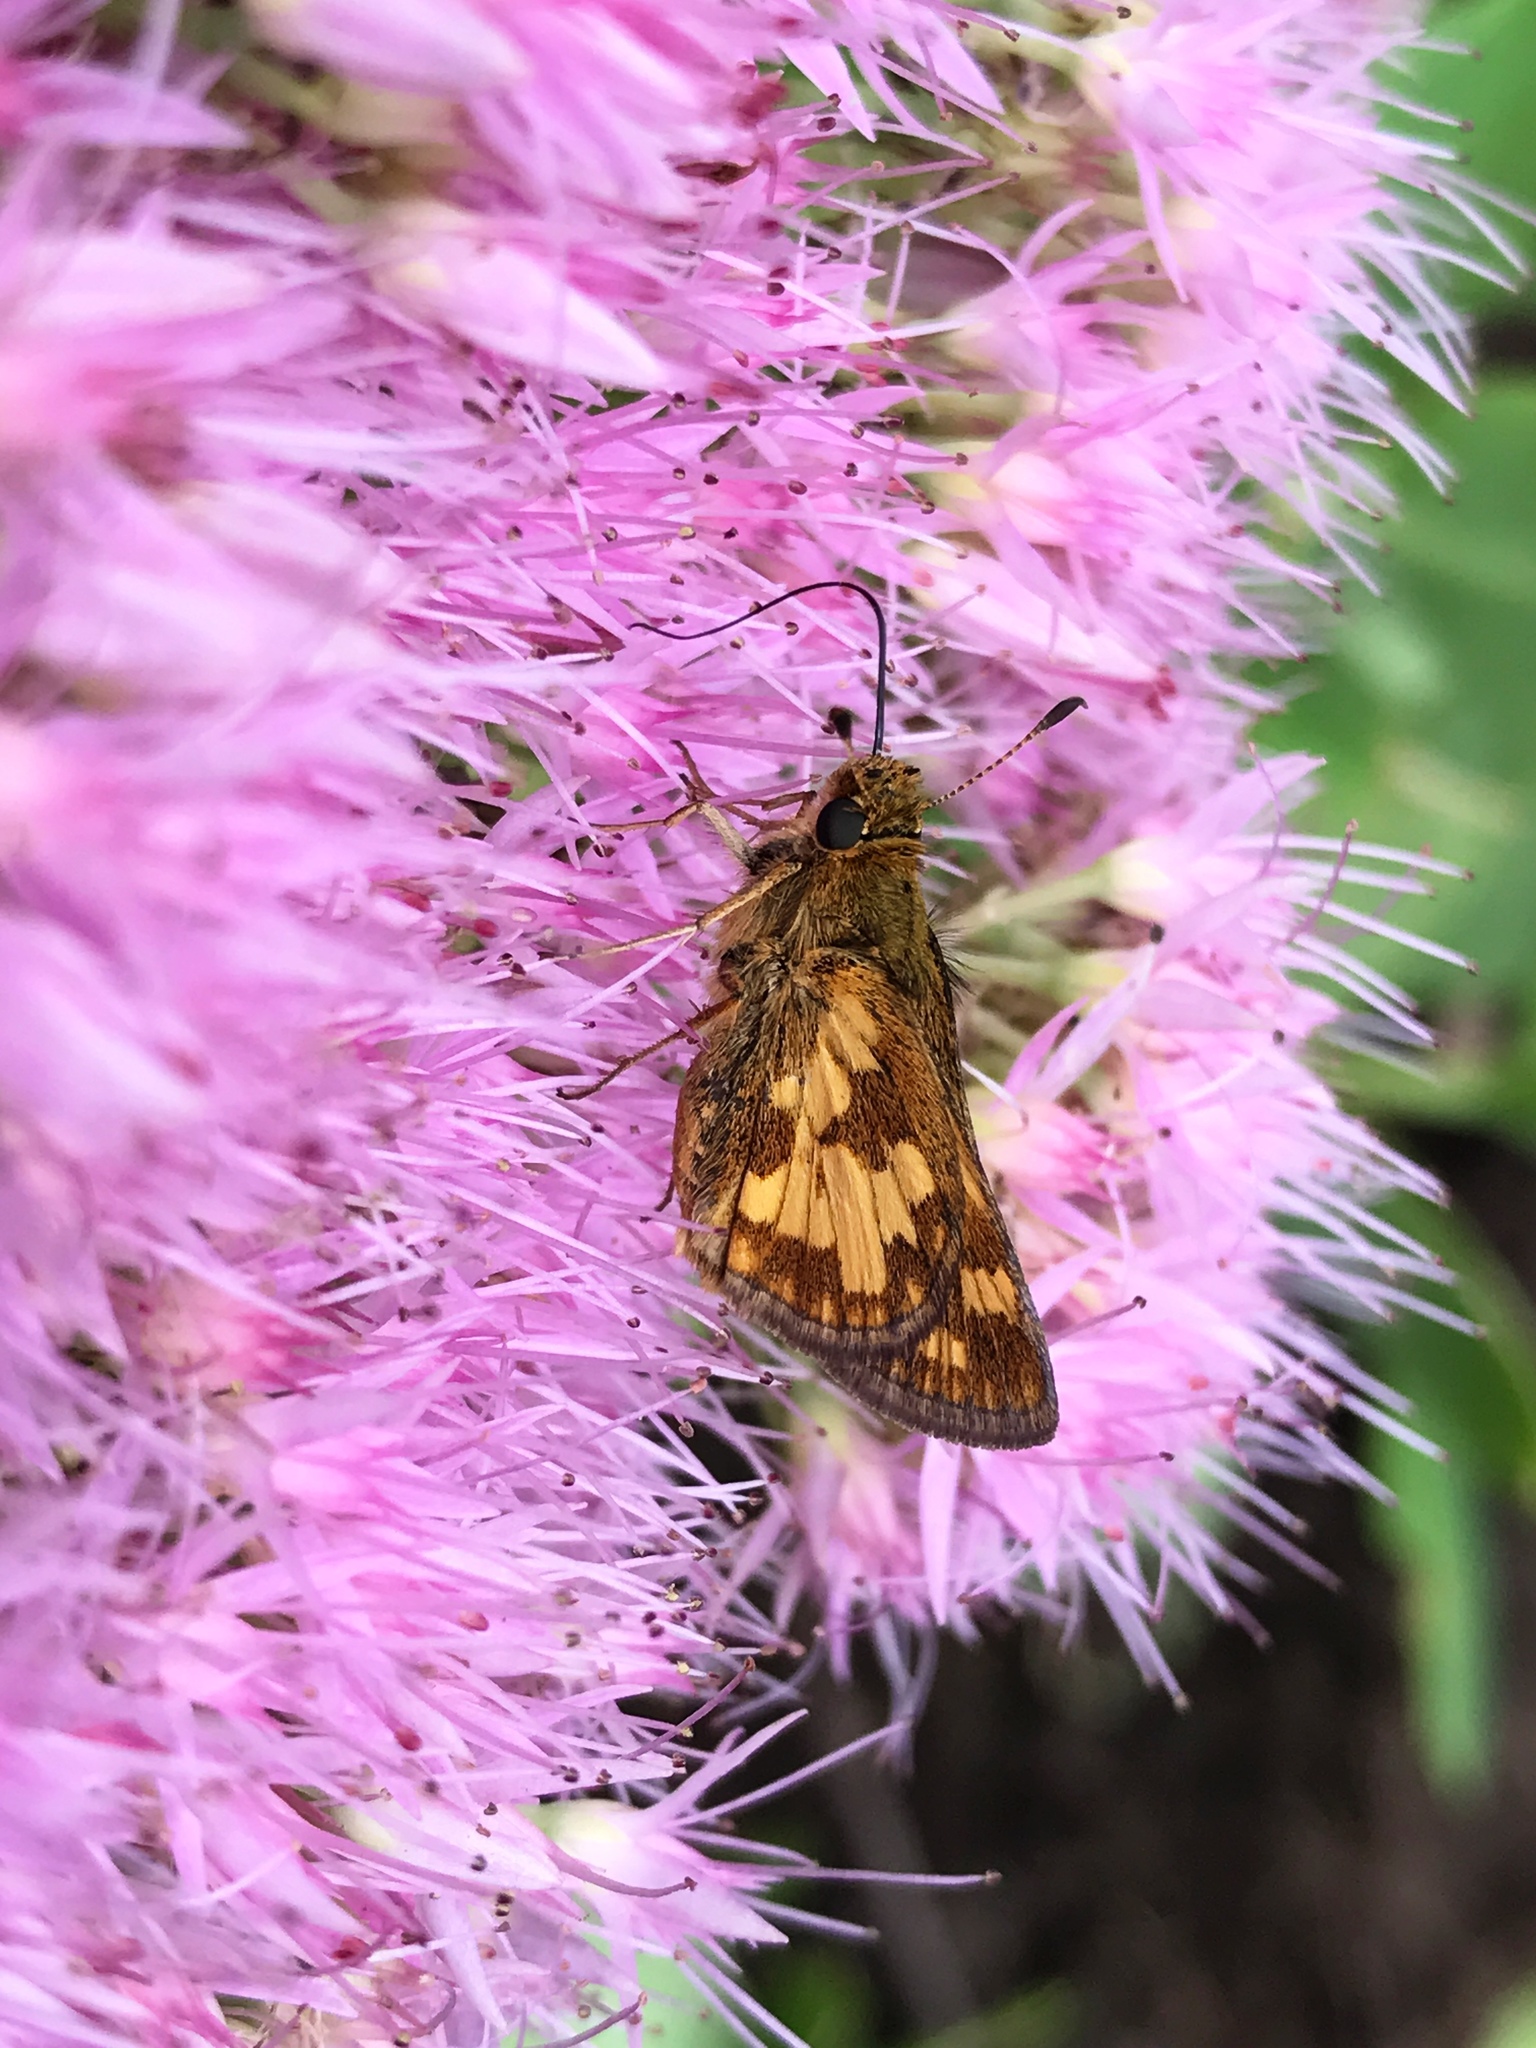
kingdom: Animalia
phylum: Arthropoda
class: Insecta
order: Lepidoptera
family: Hesperiidae
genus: Polites
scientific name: Polites coras
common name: Peck's skipper
